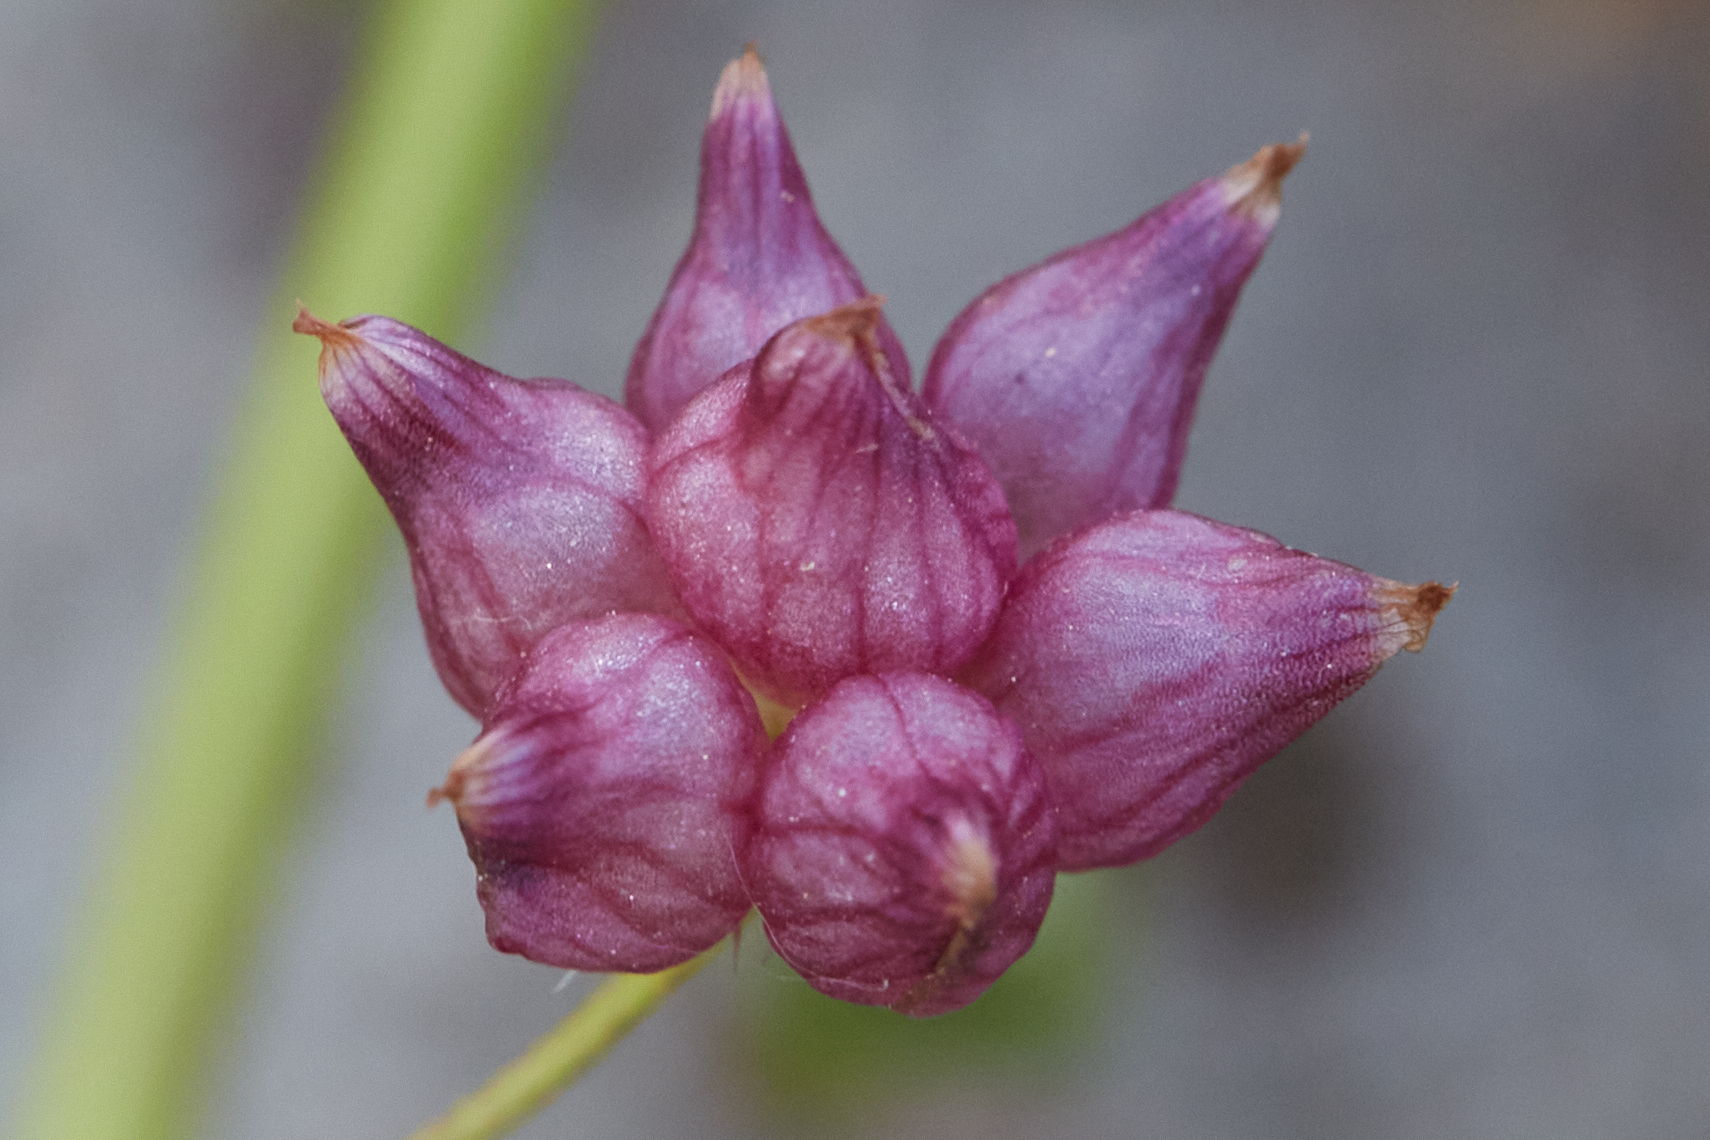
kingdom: Plantae
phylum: Tracheophyta
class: Magnoliopsida
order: Fabales
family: Fabaceae
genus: Trifolium
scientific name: Trifolium depauperatum
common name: Poverty clover
